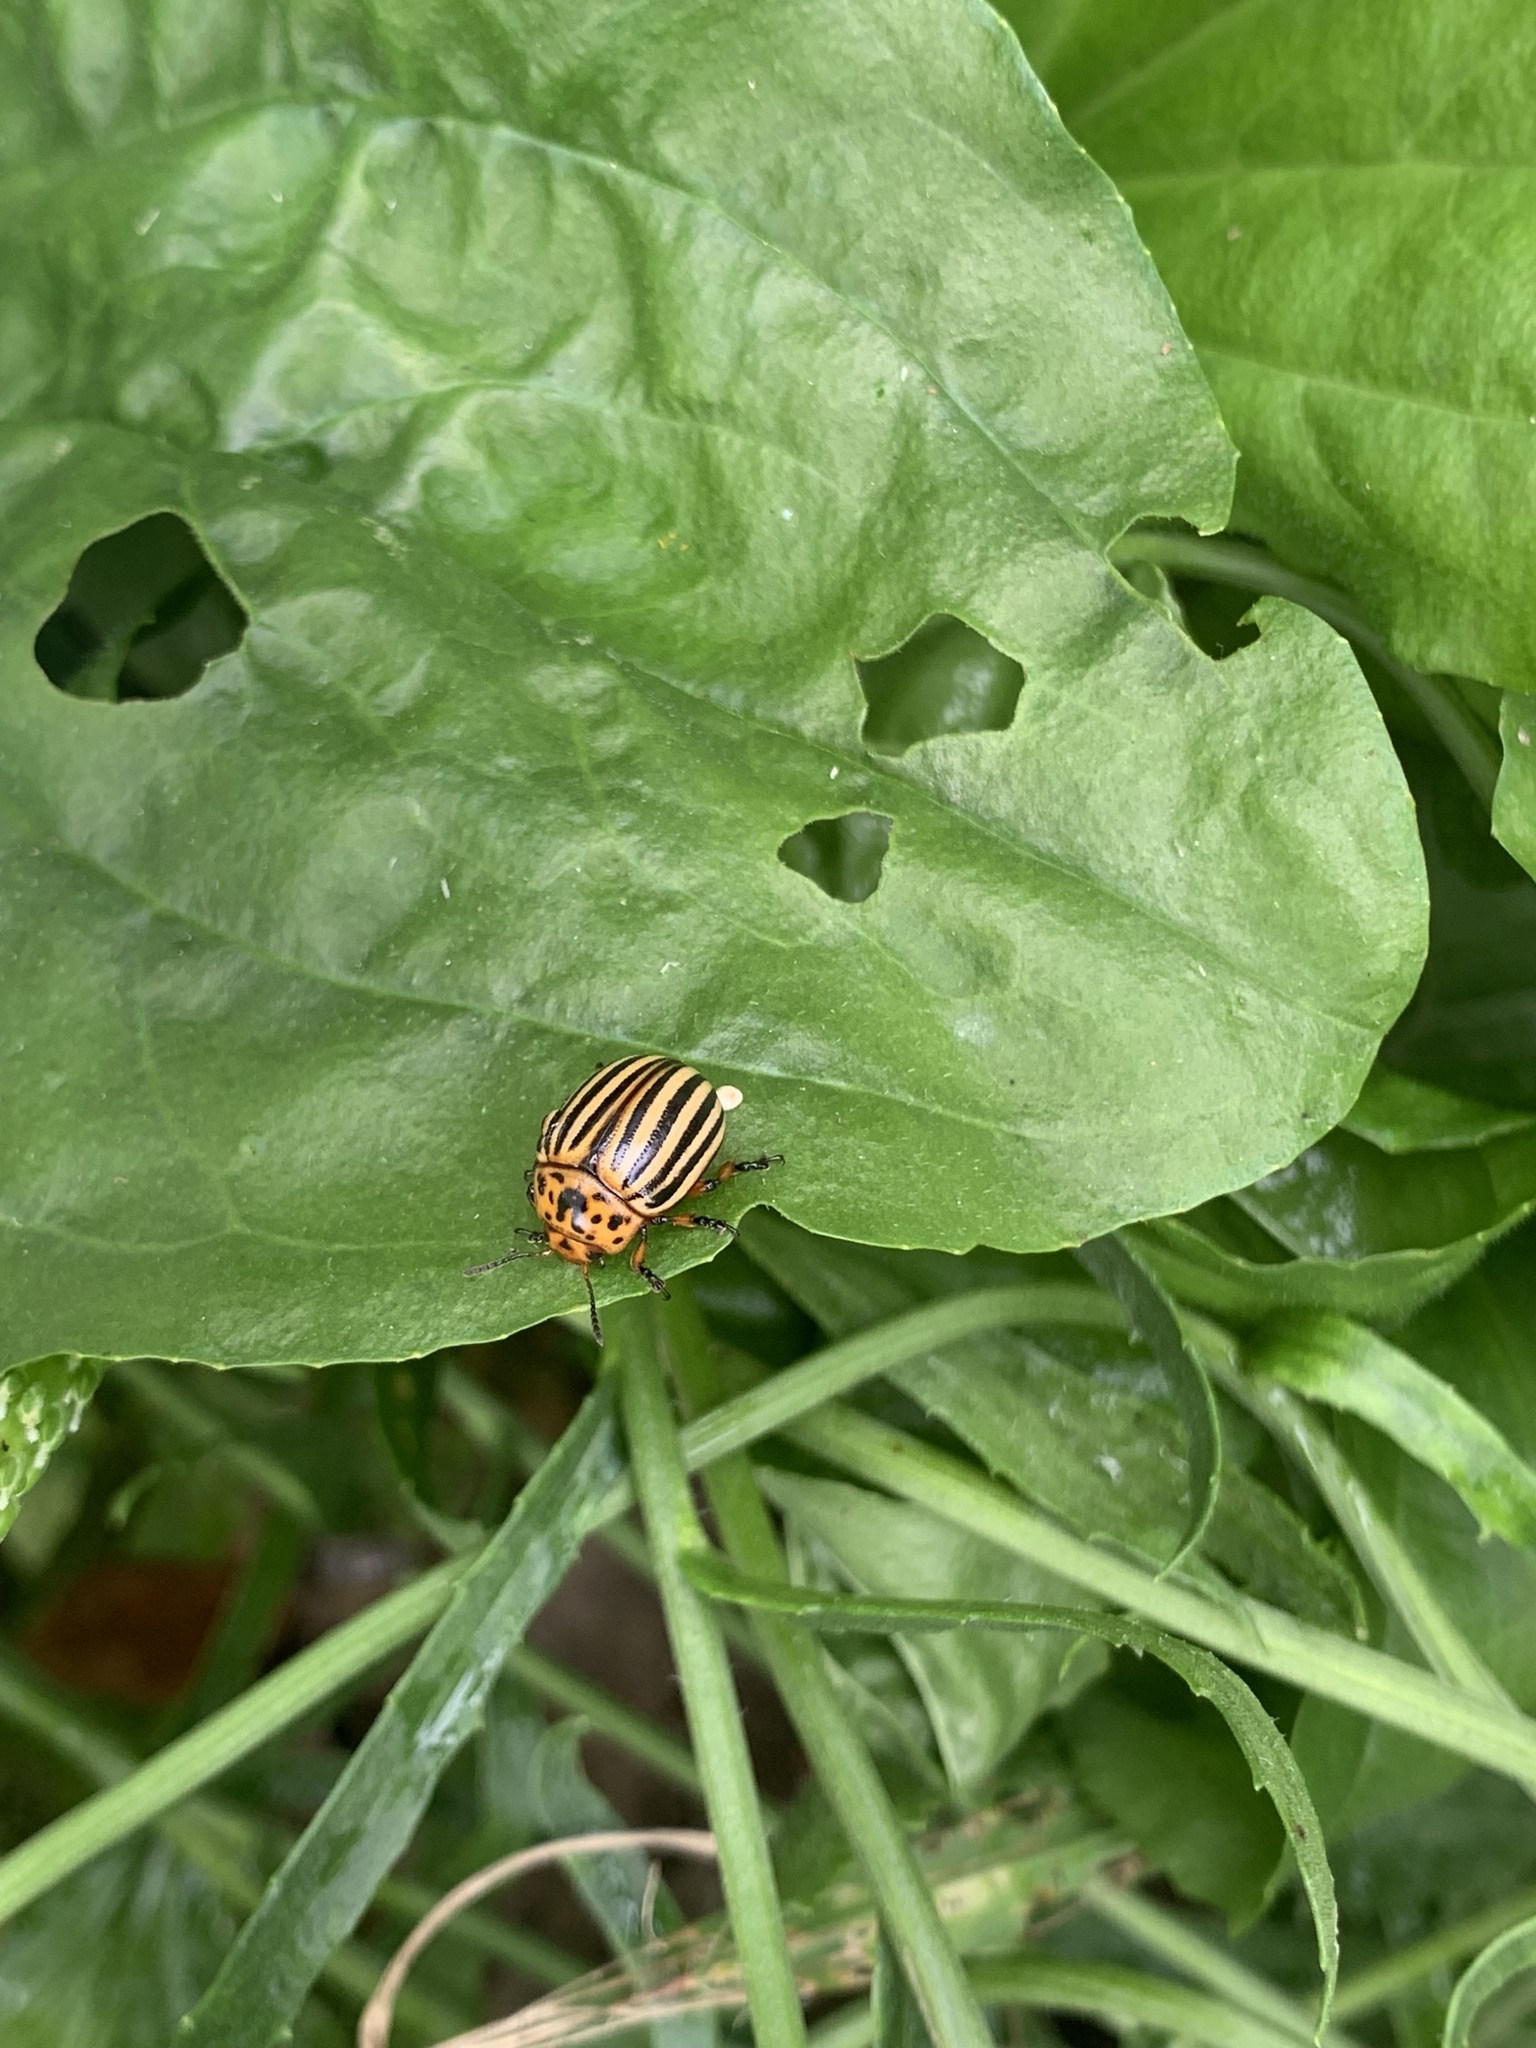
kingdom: Animalia
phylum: Arthropoda
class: Insecta
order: Coleoptera
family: Chrysomelidae
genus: Leptinotarsa
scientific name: Leptinotarsa decemlineata
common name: Colorado potato beetle
